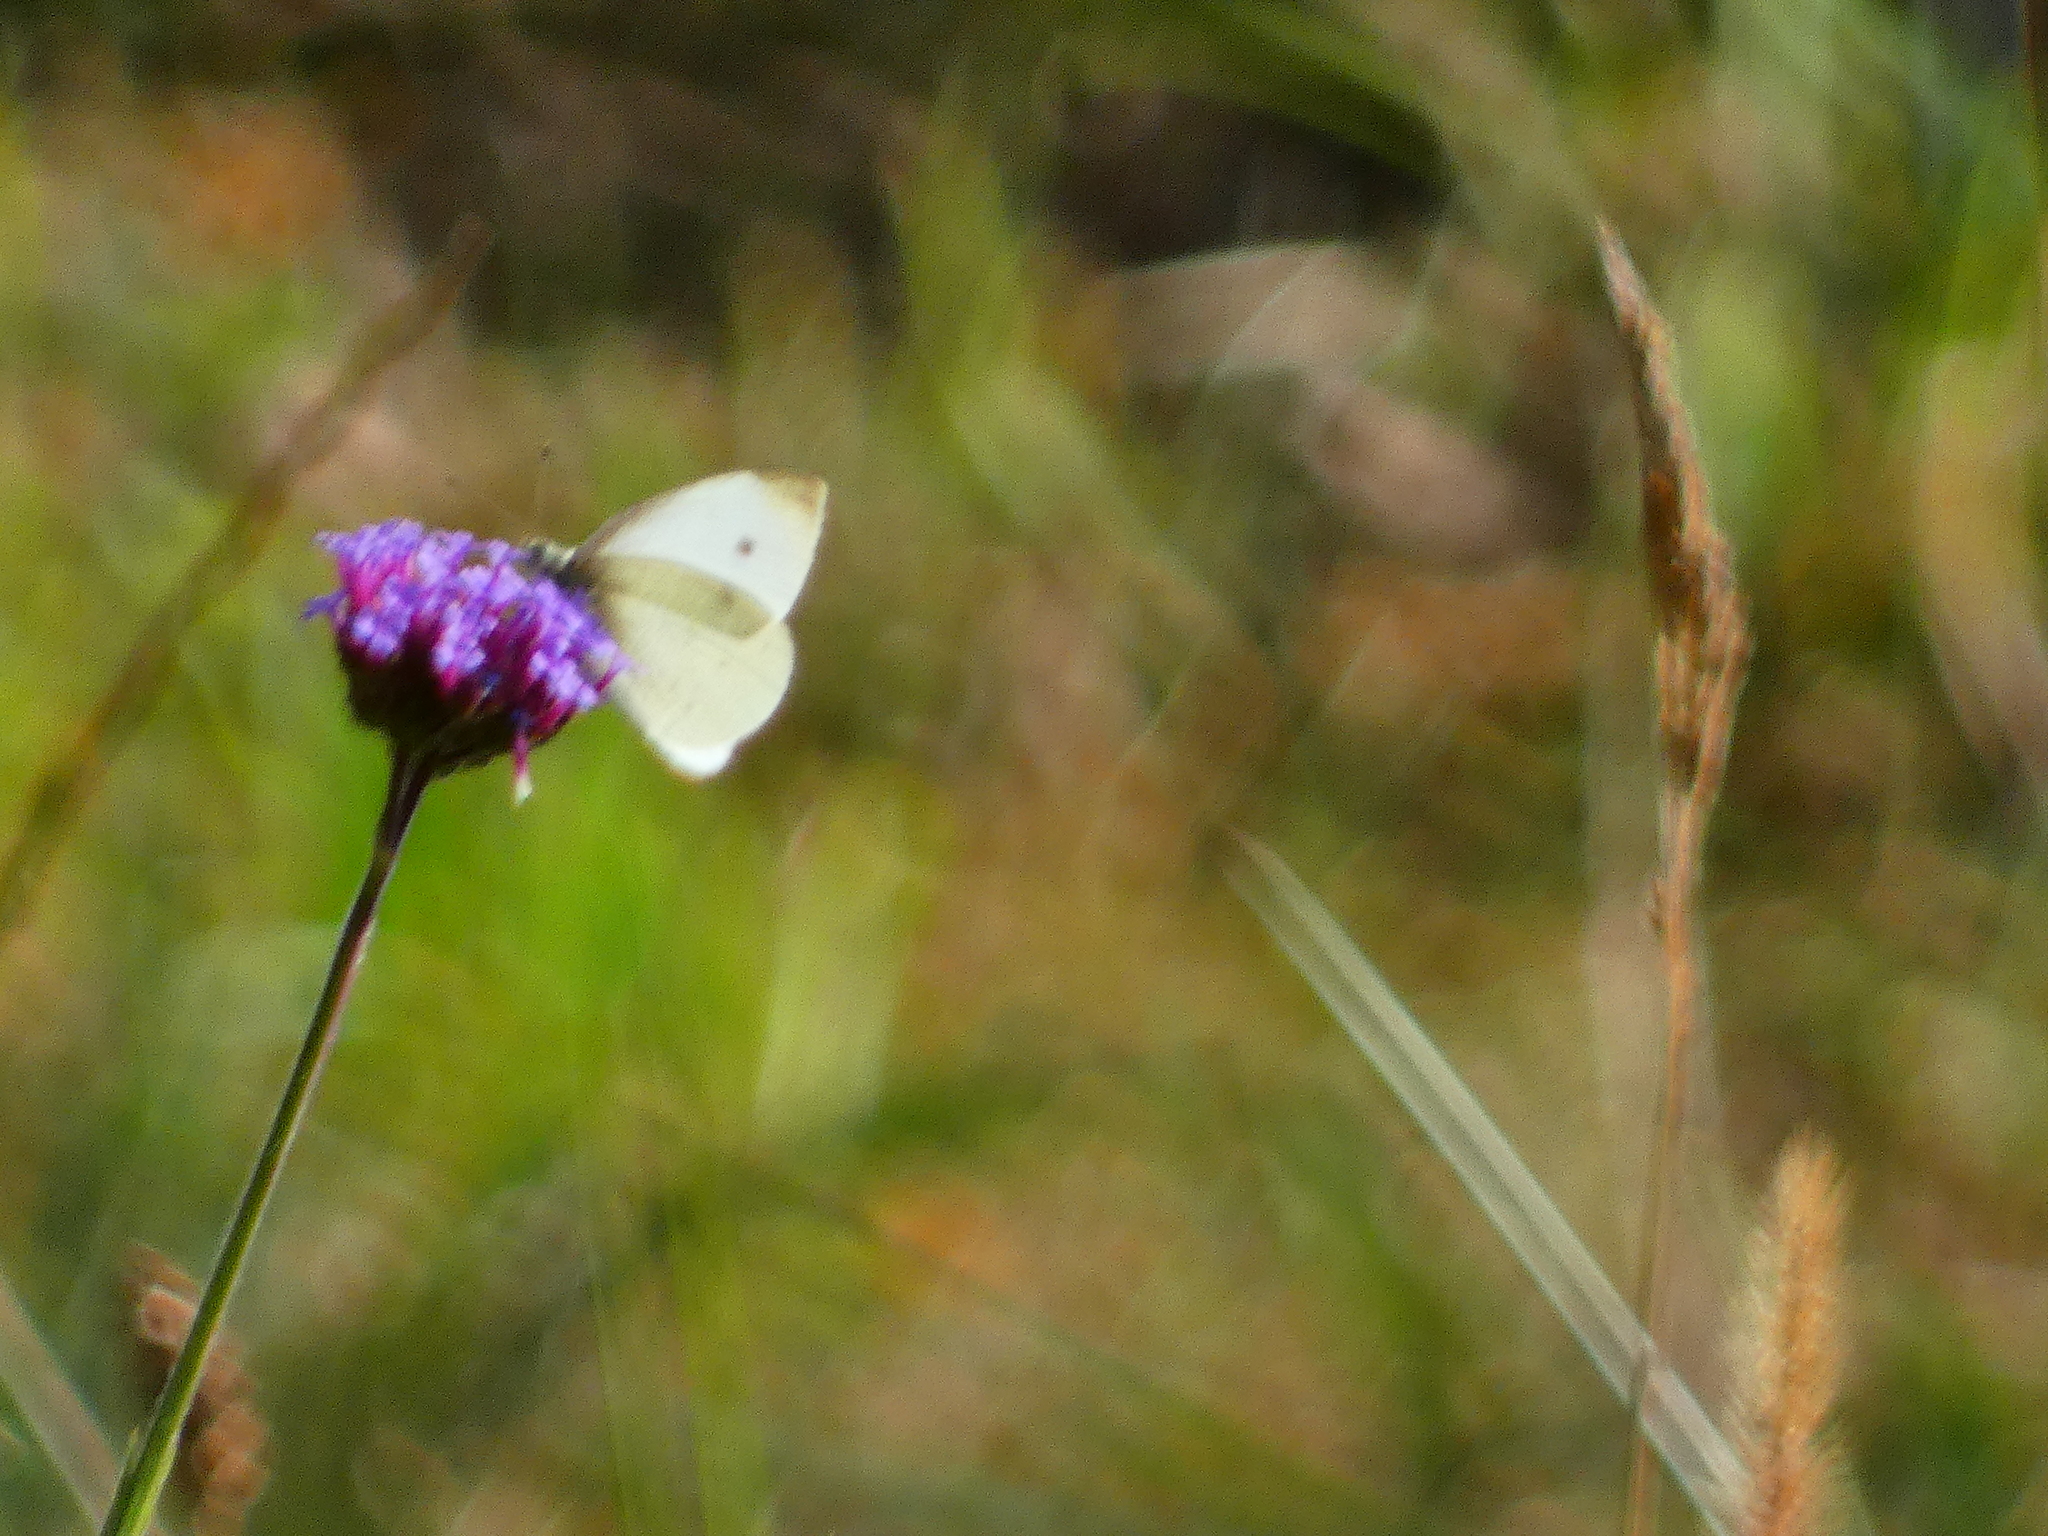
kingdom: Animalia
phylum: Arthropoda
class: Insecta
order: Lepidoptera
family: Pieridae
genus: Pieris
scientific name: Pieris rapae
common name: Small white
